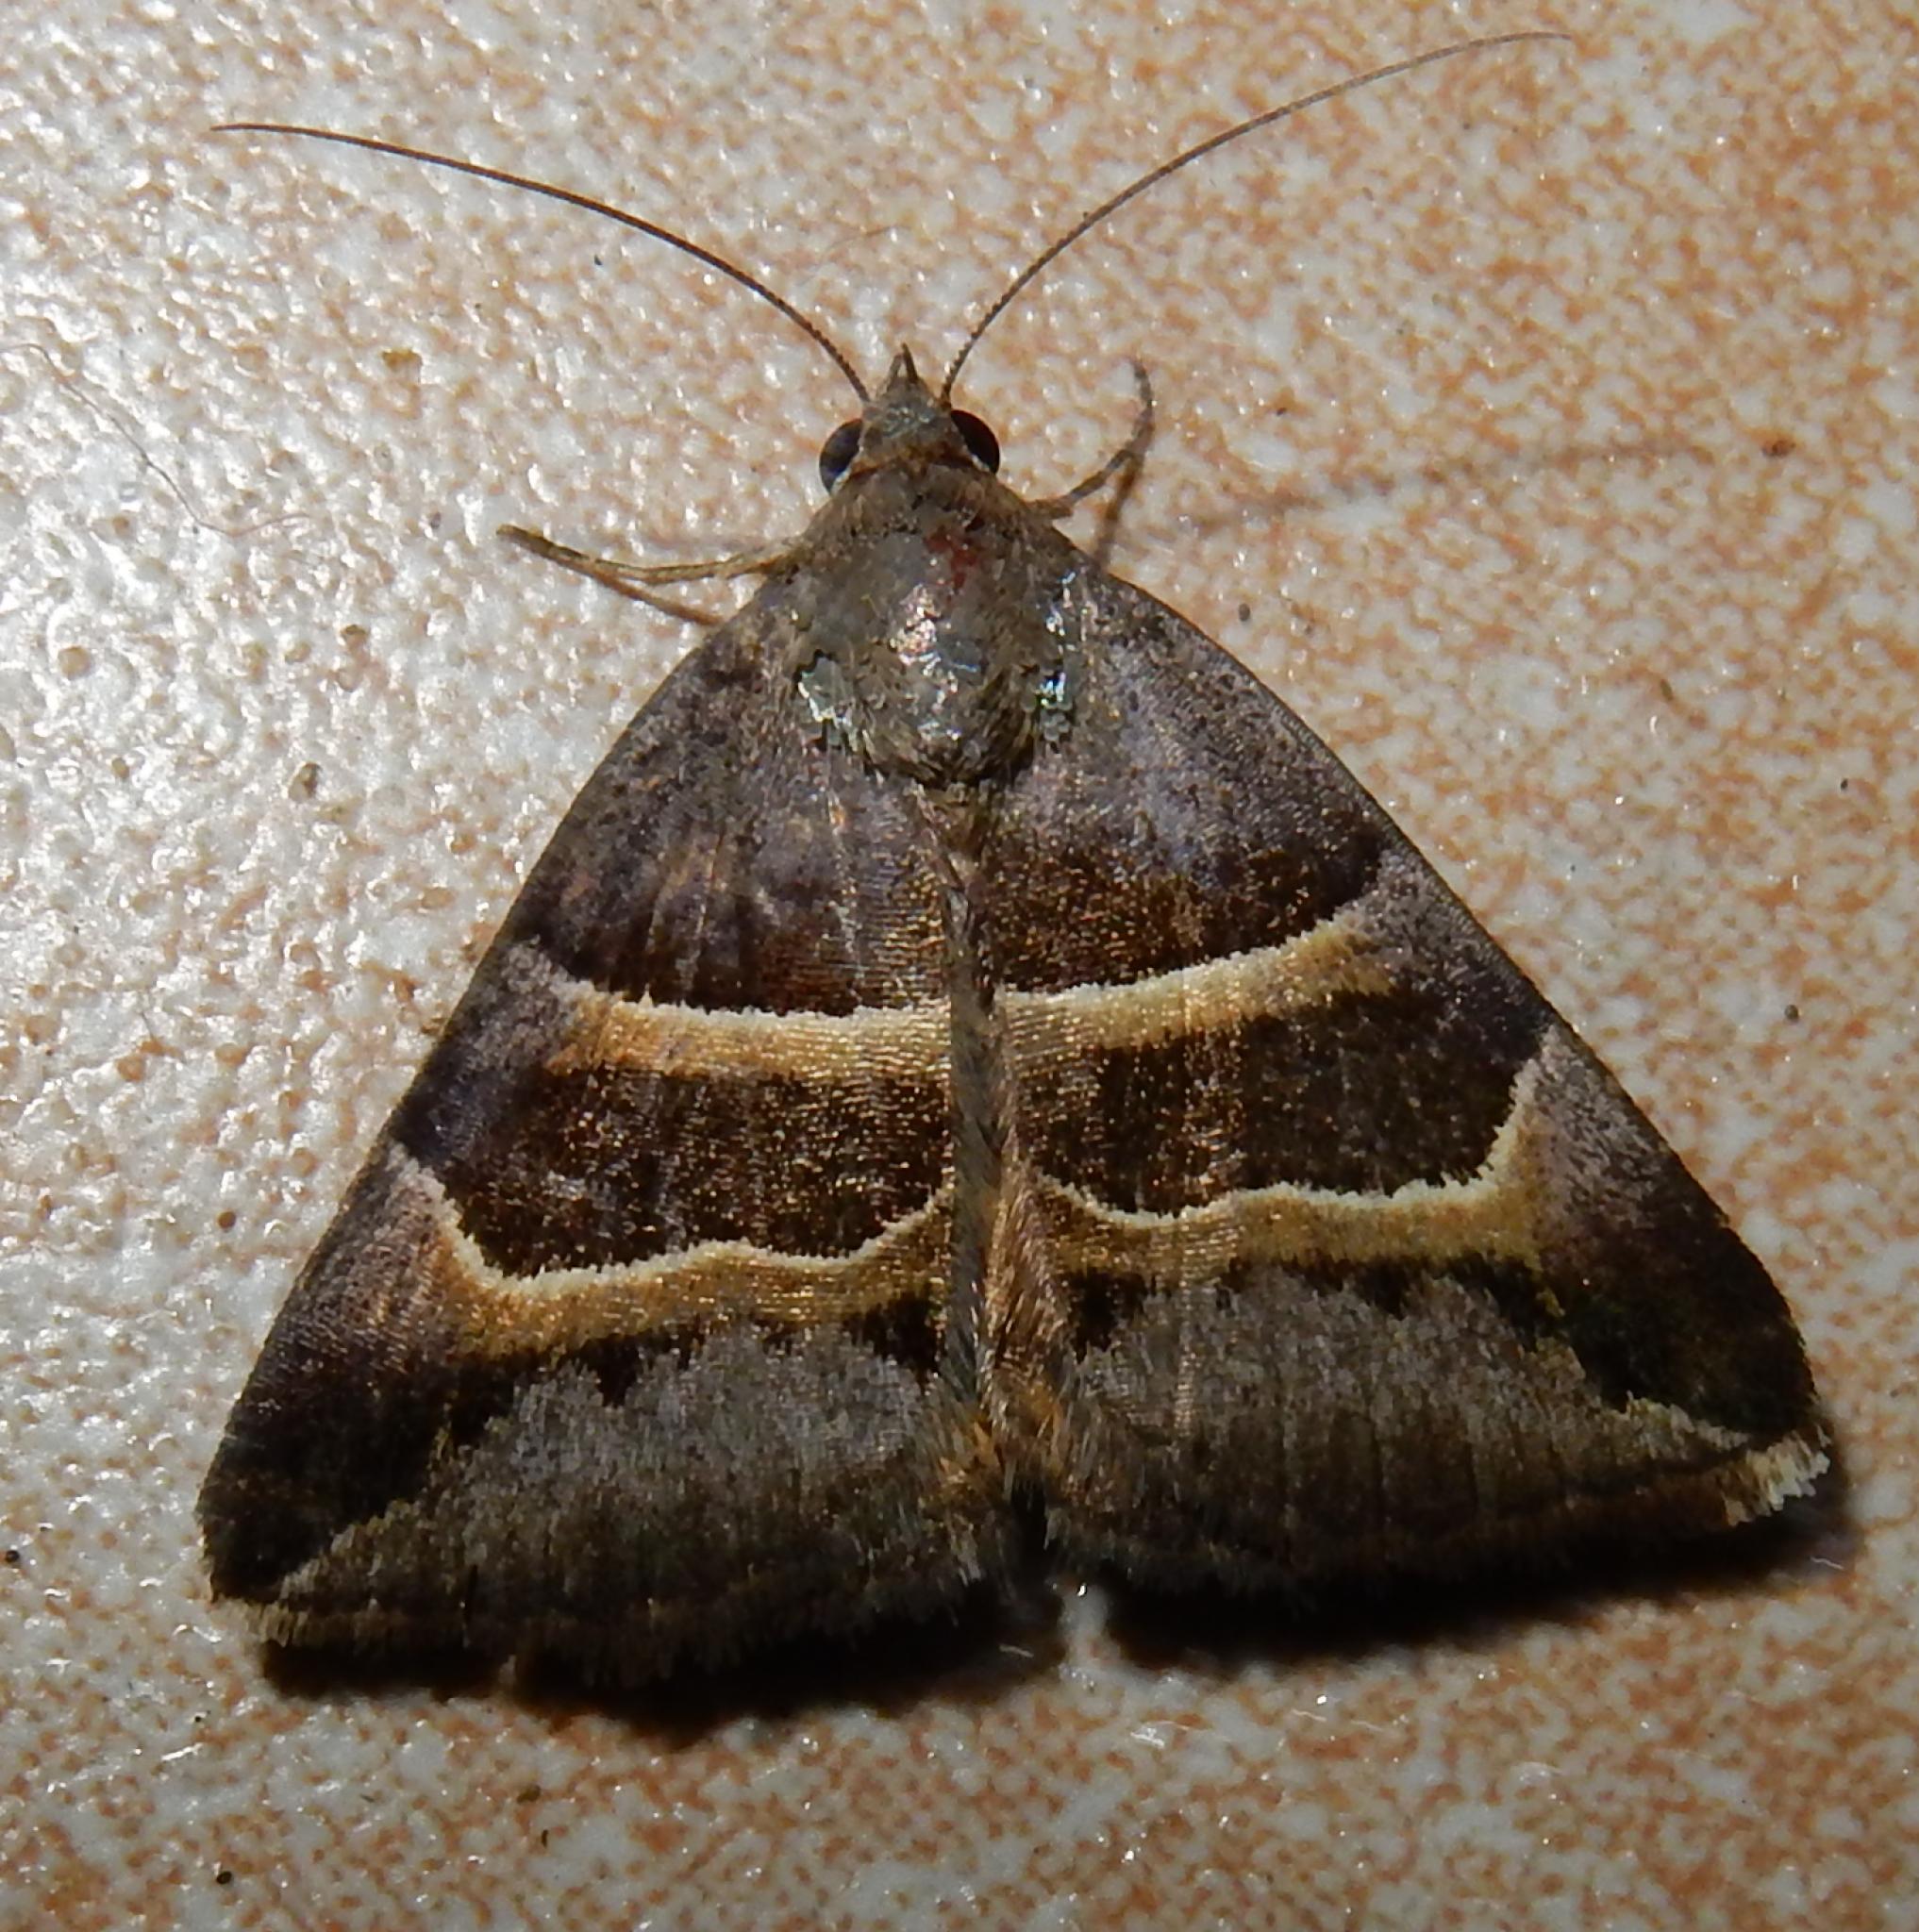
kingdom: Animalia
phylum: Arthropoda
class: Insecta
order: Lepidoptera
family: Erebidae
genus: Grammodes
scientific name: Grammodes euclidioides
